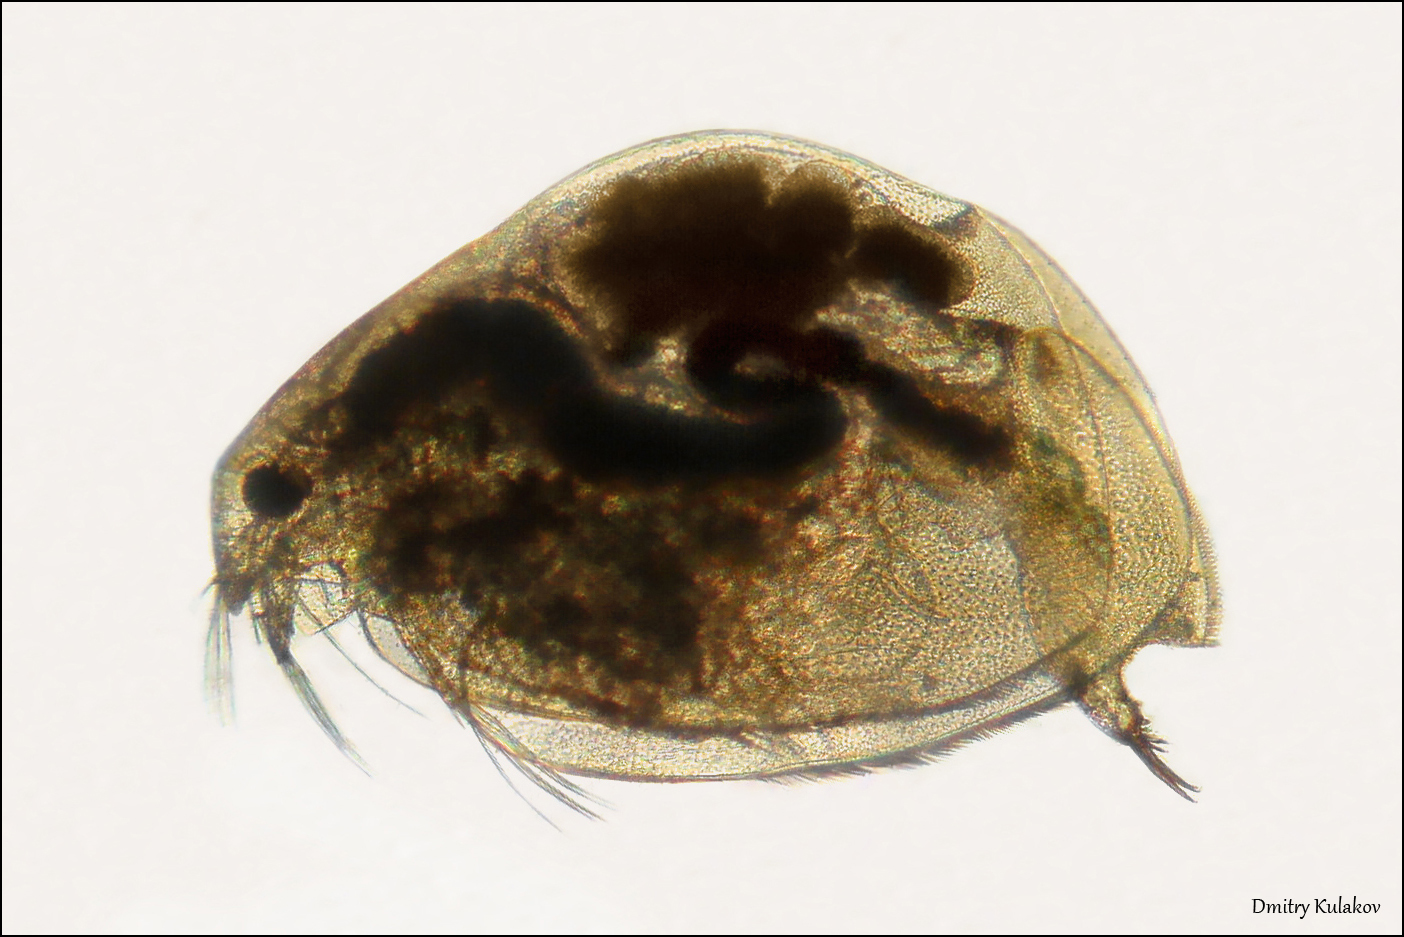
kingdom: Animalia
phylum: Arthropoda
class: Branchiopoda
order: Diplostraca
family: Eurycercidae
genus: Eurycercus
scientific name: Eurycercus lamellatus
